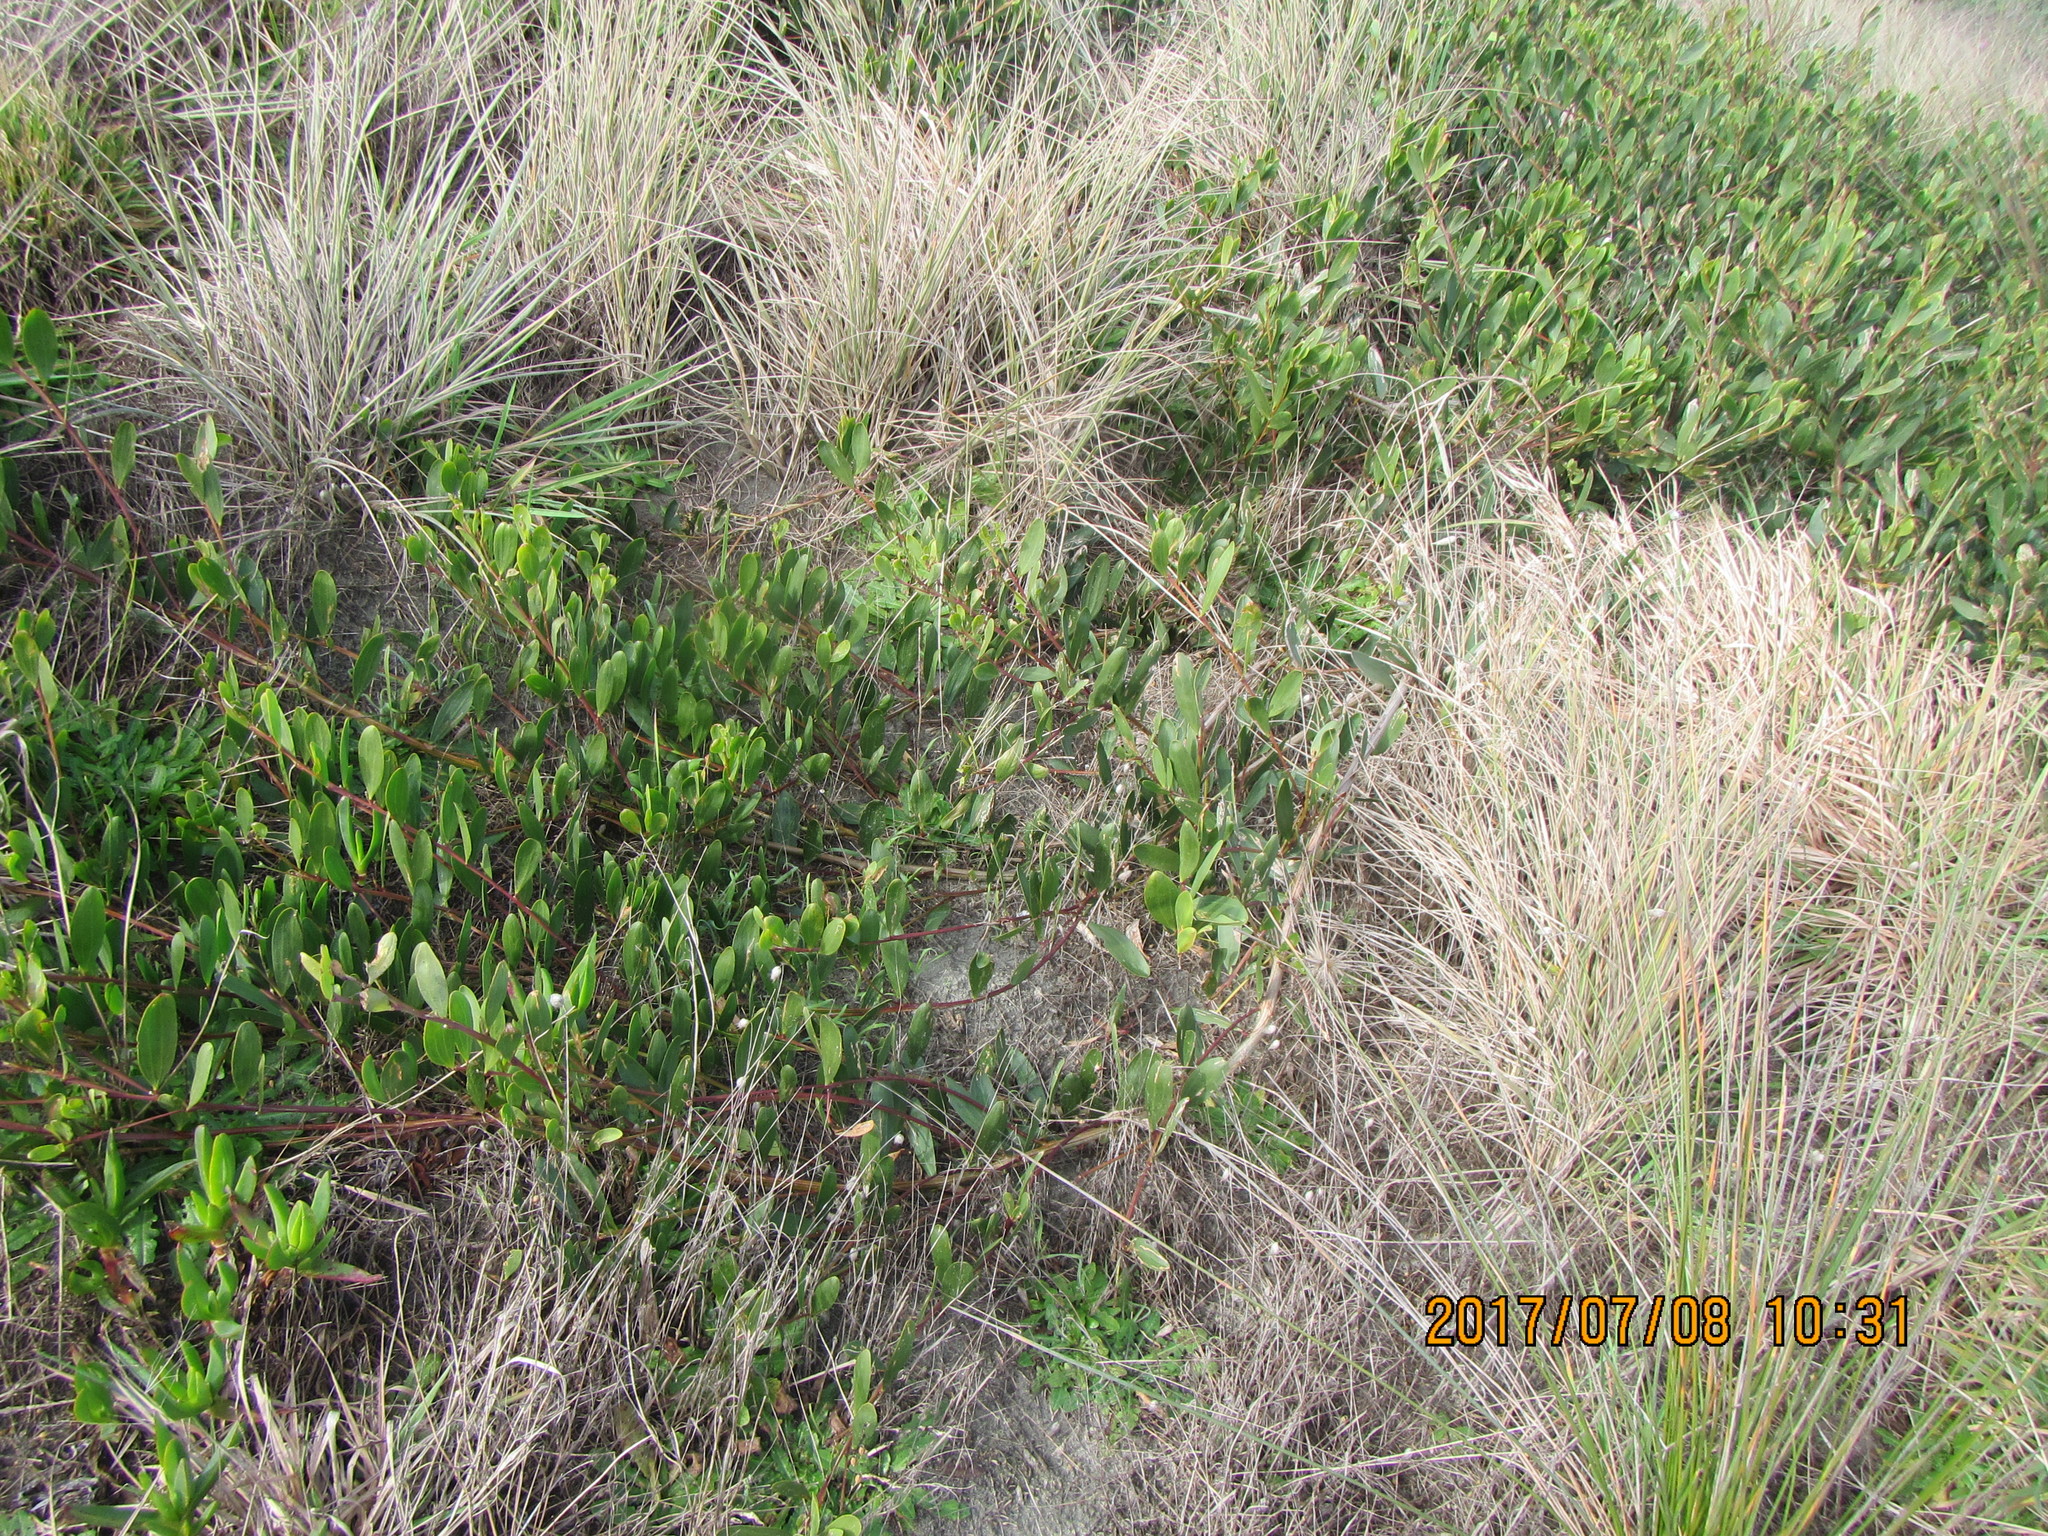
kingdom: Plantae
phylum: Tracheophyta
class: Magnoliopsida
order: Fabales
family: Fabaceae
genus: Acacia
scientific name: Acacia longifolia
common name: Sydney golden wattle
